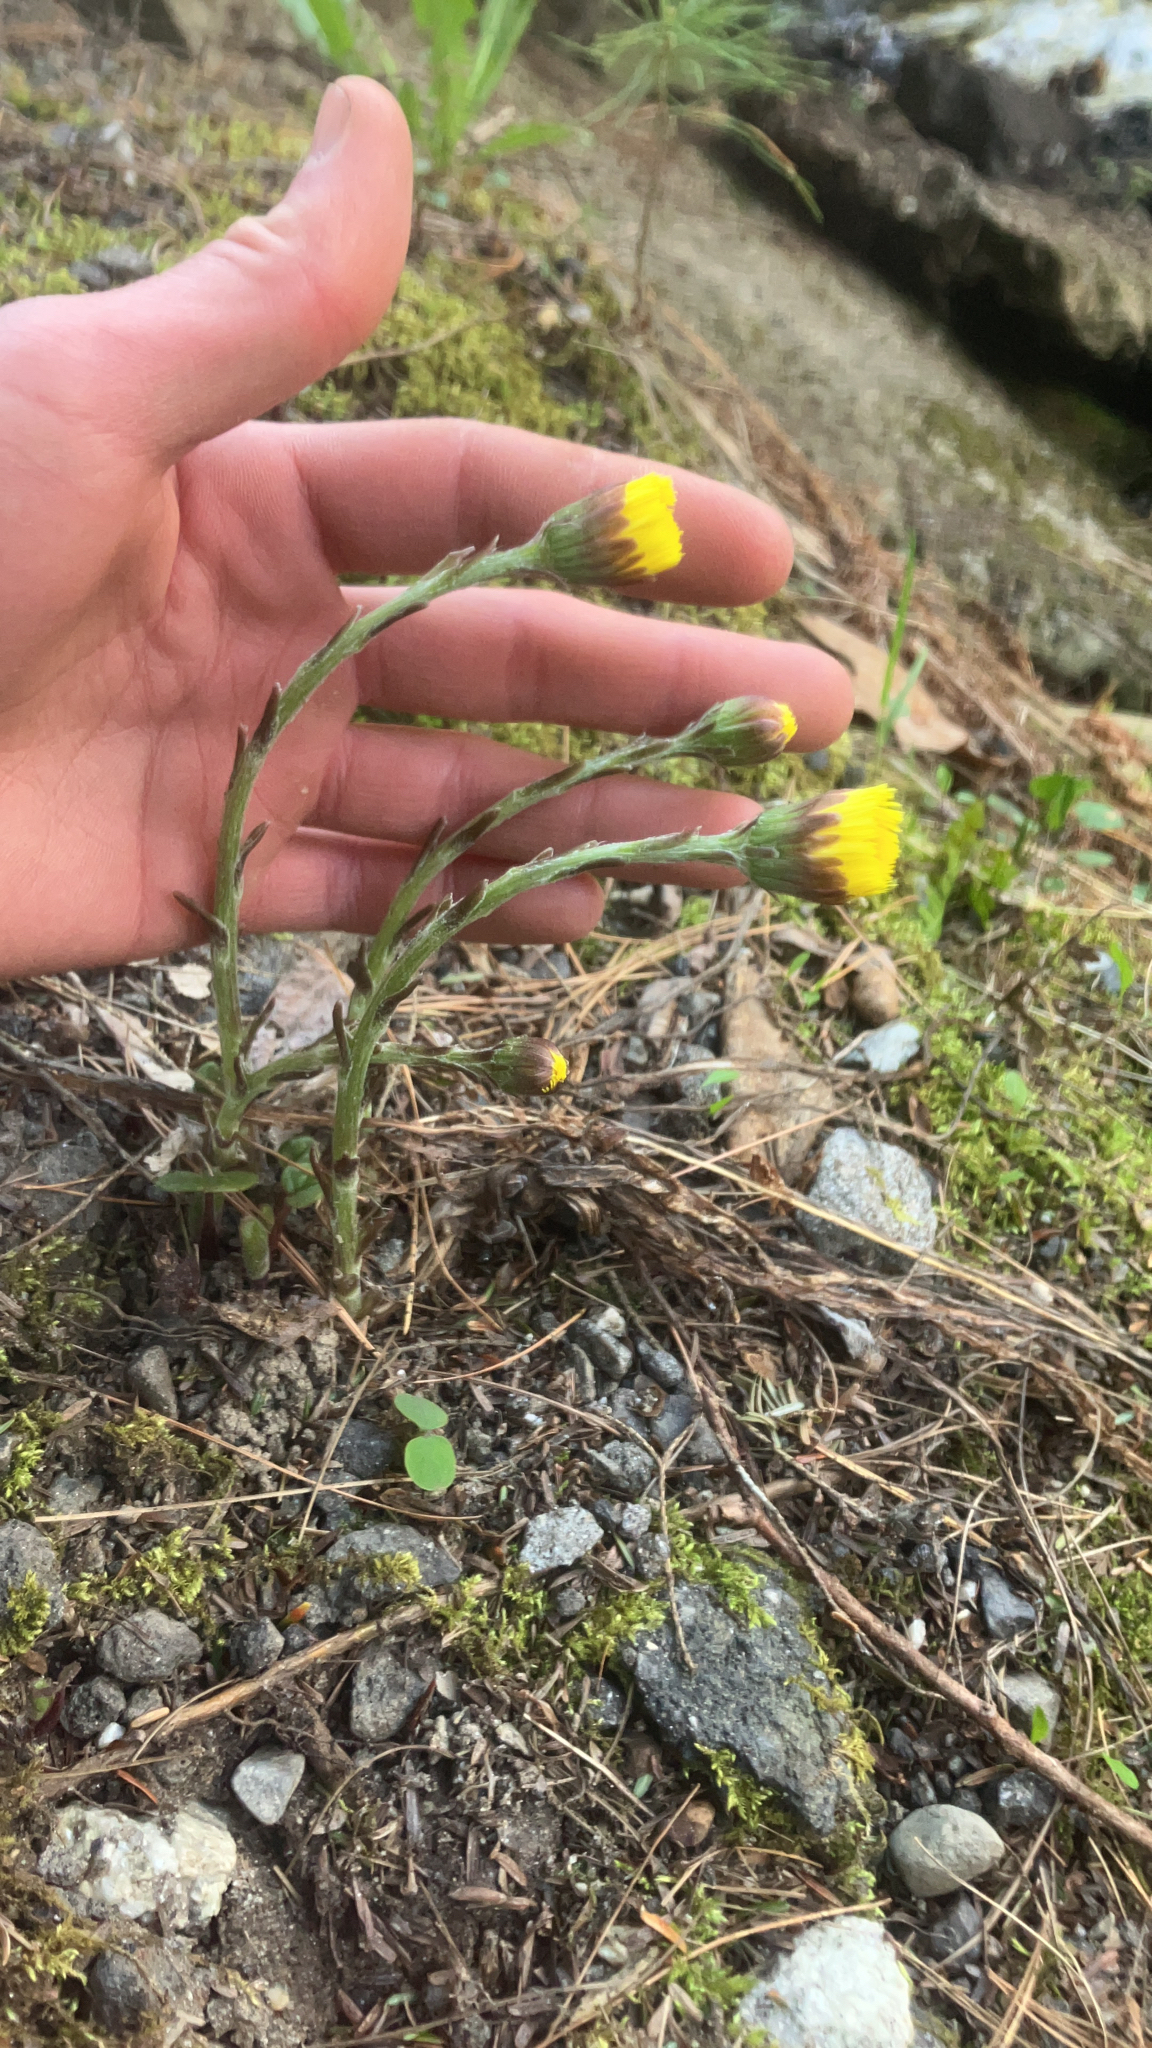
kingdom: Plantae
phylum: Tracheophyta
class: Magnoliopsida
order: Asterales
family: Asteraceae
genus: Tussilago
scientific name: Tussilago farfara
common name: Coltsfoot
